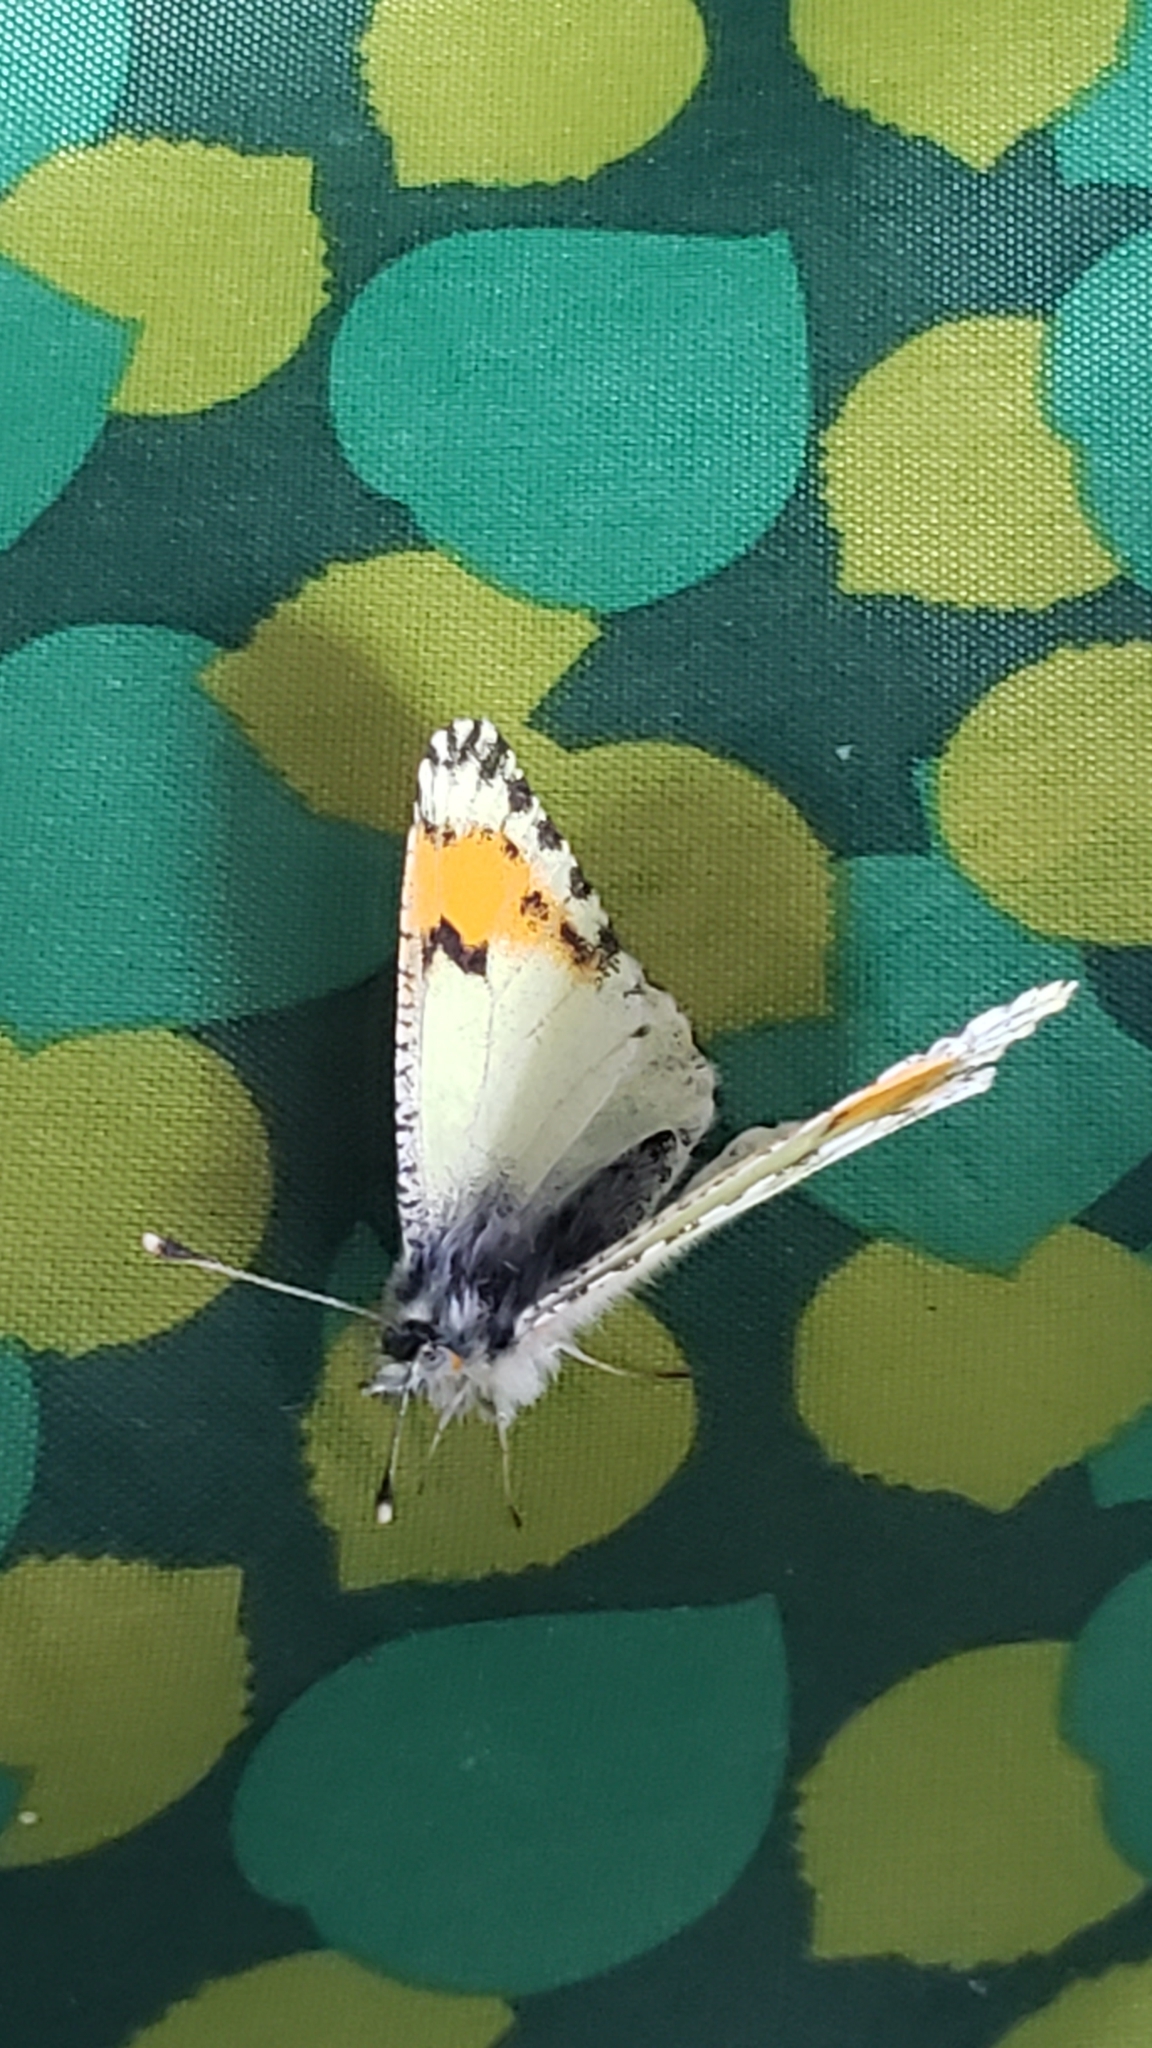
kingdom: Animalia
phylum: Arthropoda
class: Insecta
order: Lepidoptera
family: Pieridae
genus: Anthocharis
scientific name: Anthocharis julia
